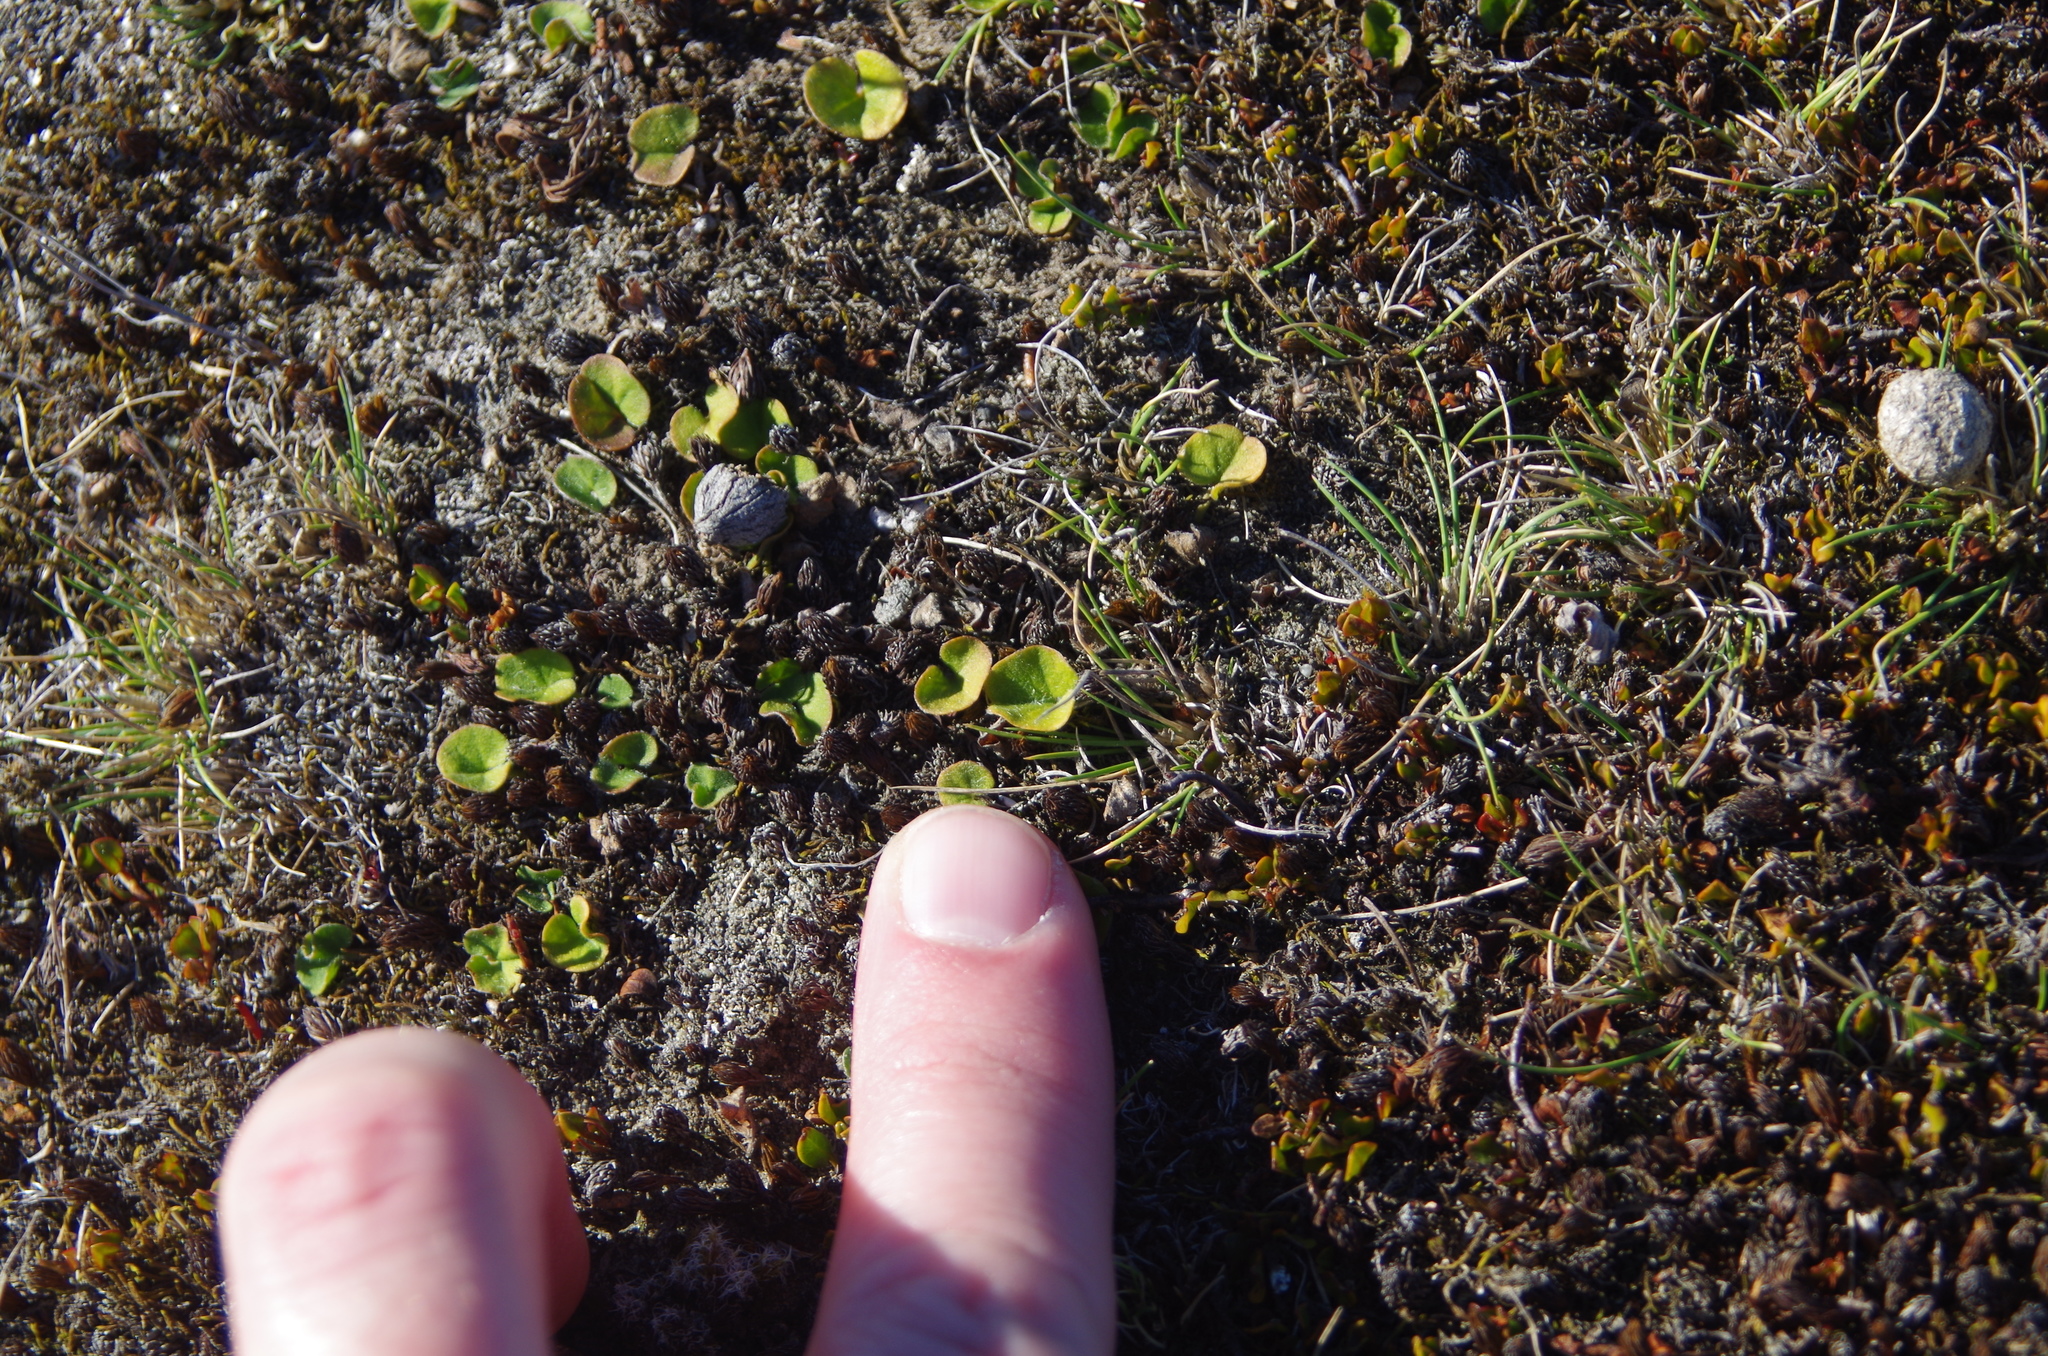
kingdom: Plantae
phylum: Tracheophyta
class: Magnoliopsida
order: Solanales
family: Convolvulaceae
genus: Dichondra
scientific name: Dichondra repens
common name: Kidneyweed
